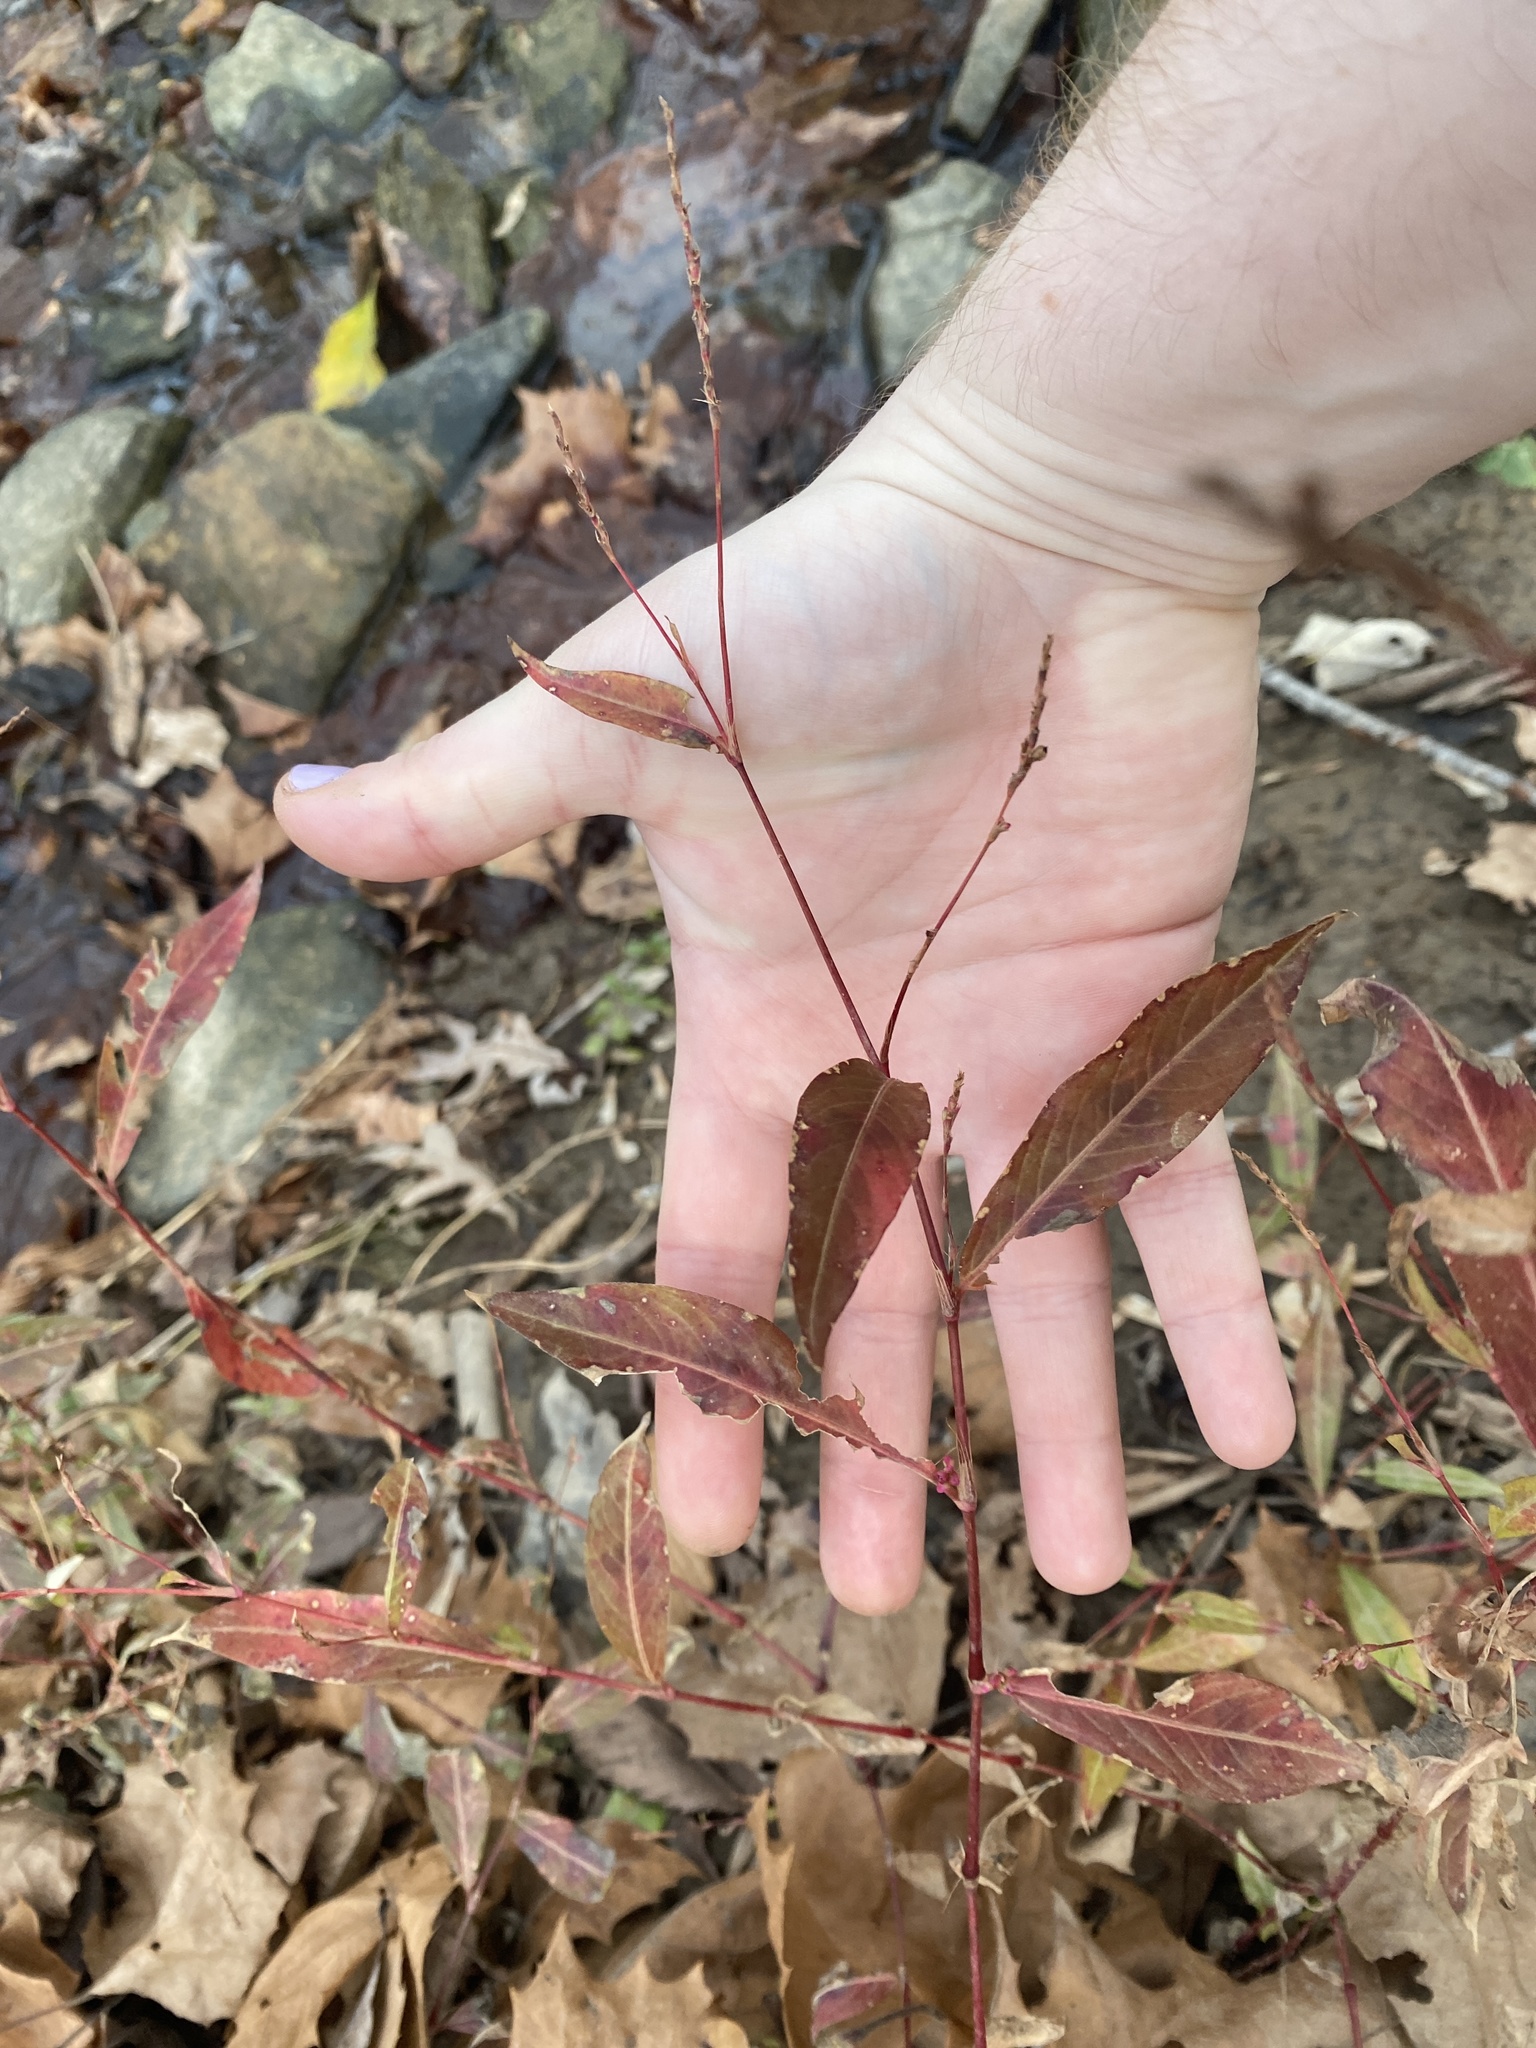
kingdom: Plantae
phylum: Tracheophyta
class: Magnoliopsida
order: Caryophyllales
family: Polygonaceae
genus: Persicaria
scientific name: Persicaria longiseta
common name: Bristly lady's-thumb
